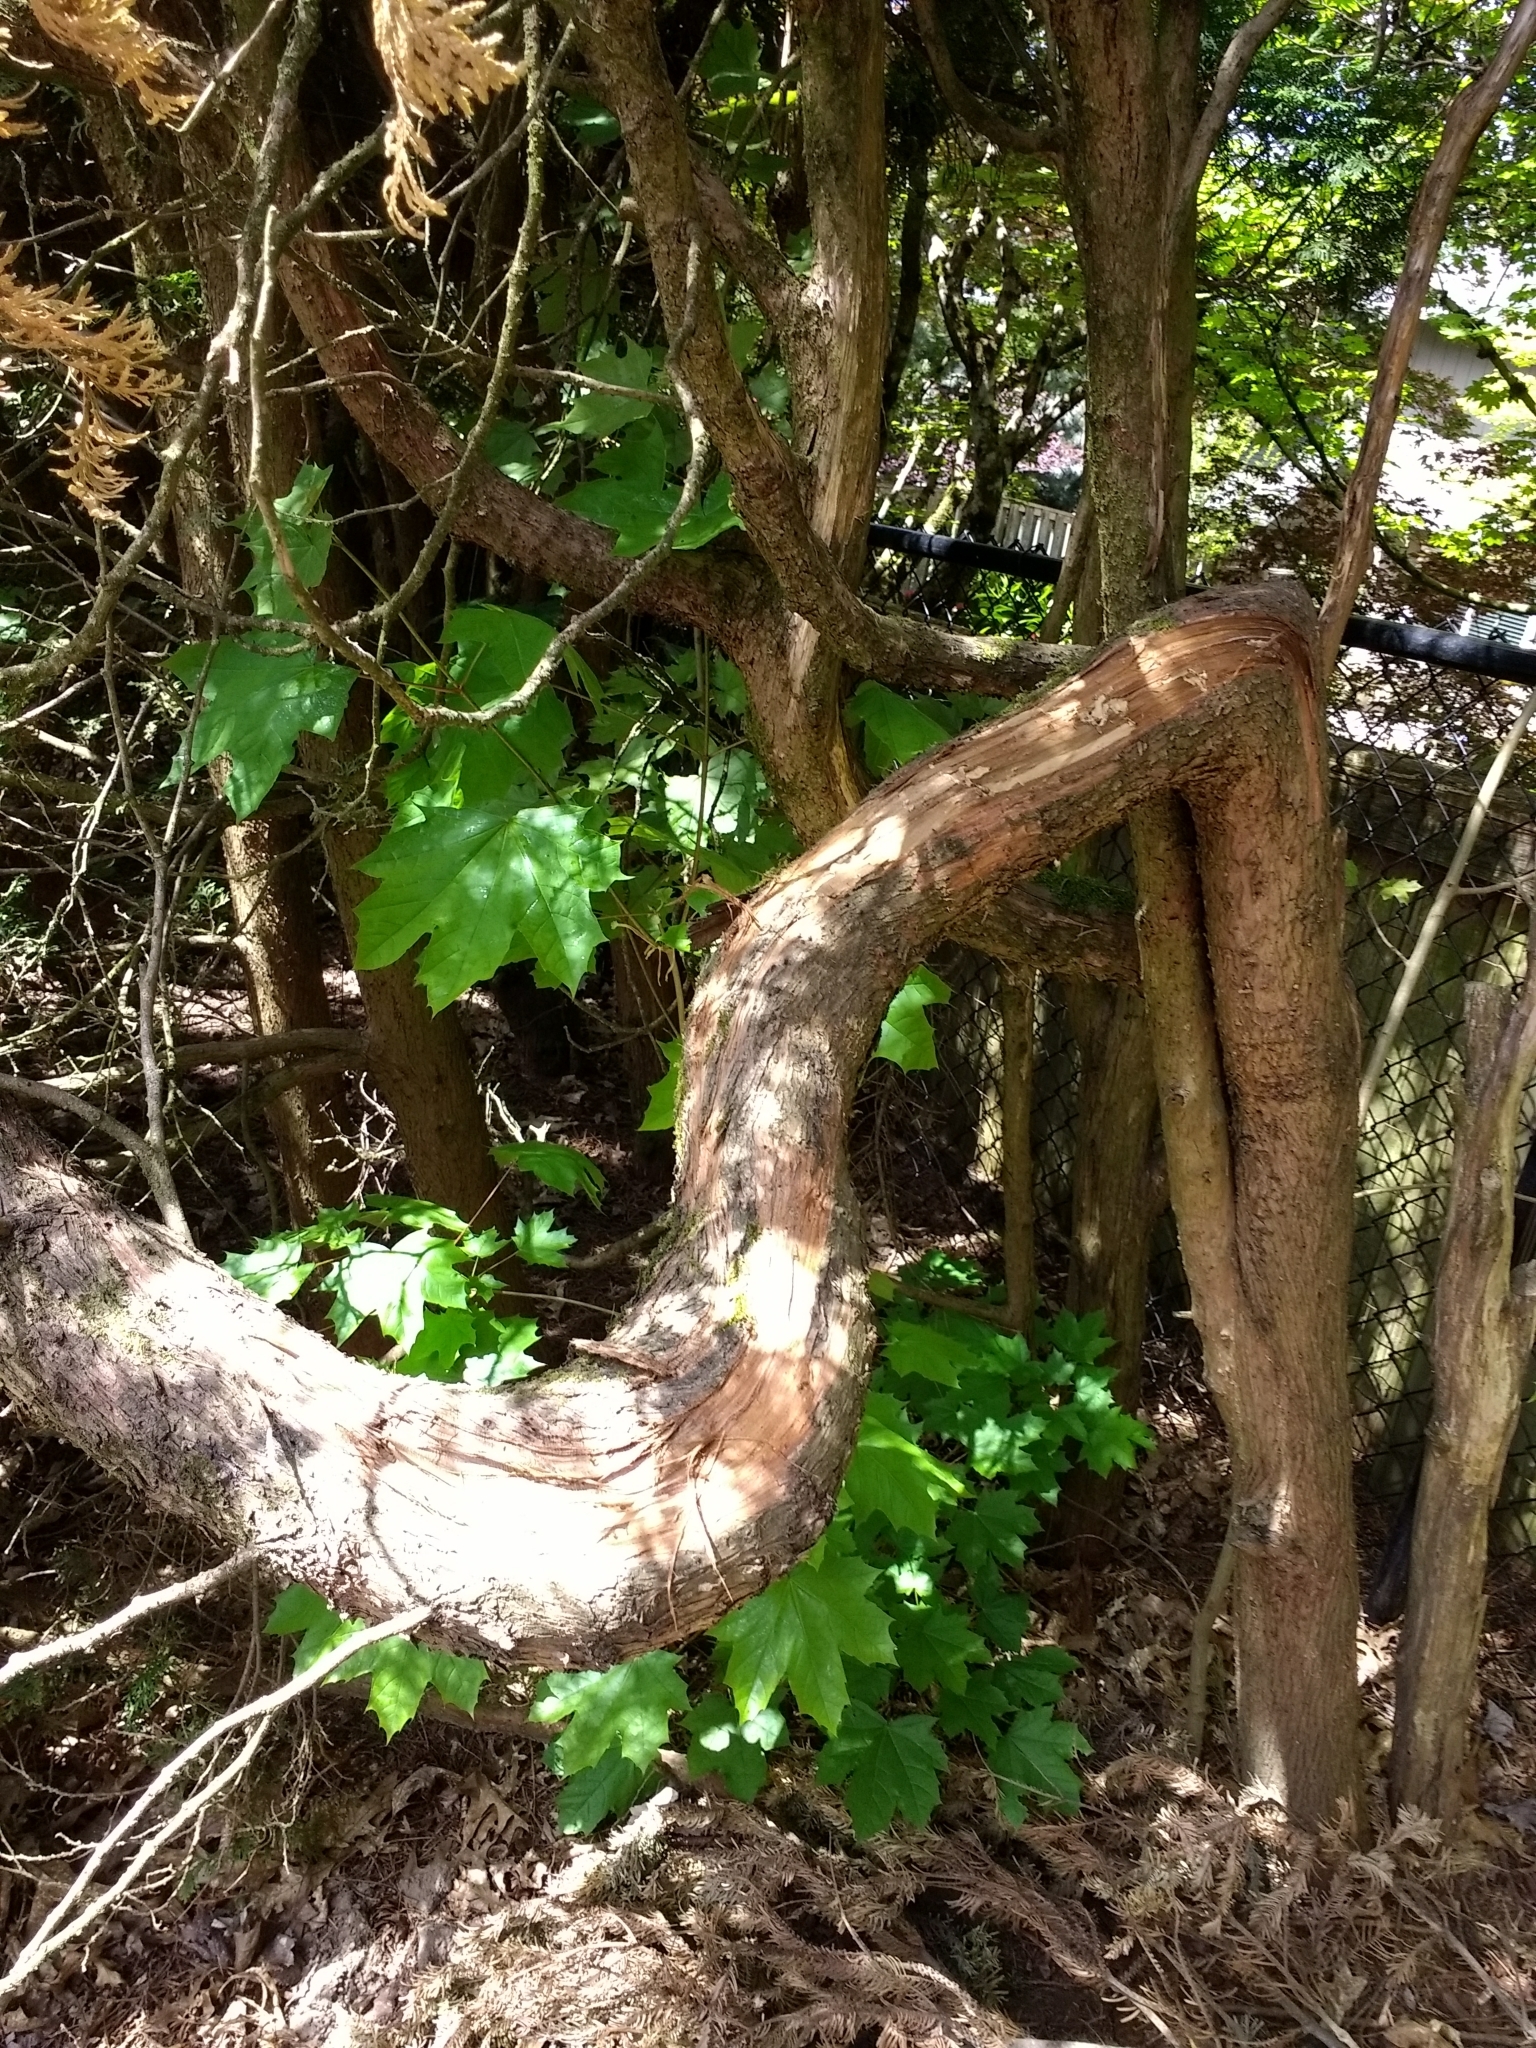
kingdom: Plantae
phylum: Tracheophyta
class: Magnoliopsida
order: Sapindales
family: Sapindaceae
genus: Acer
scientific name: Acer platanoides
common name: Norway maple
